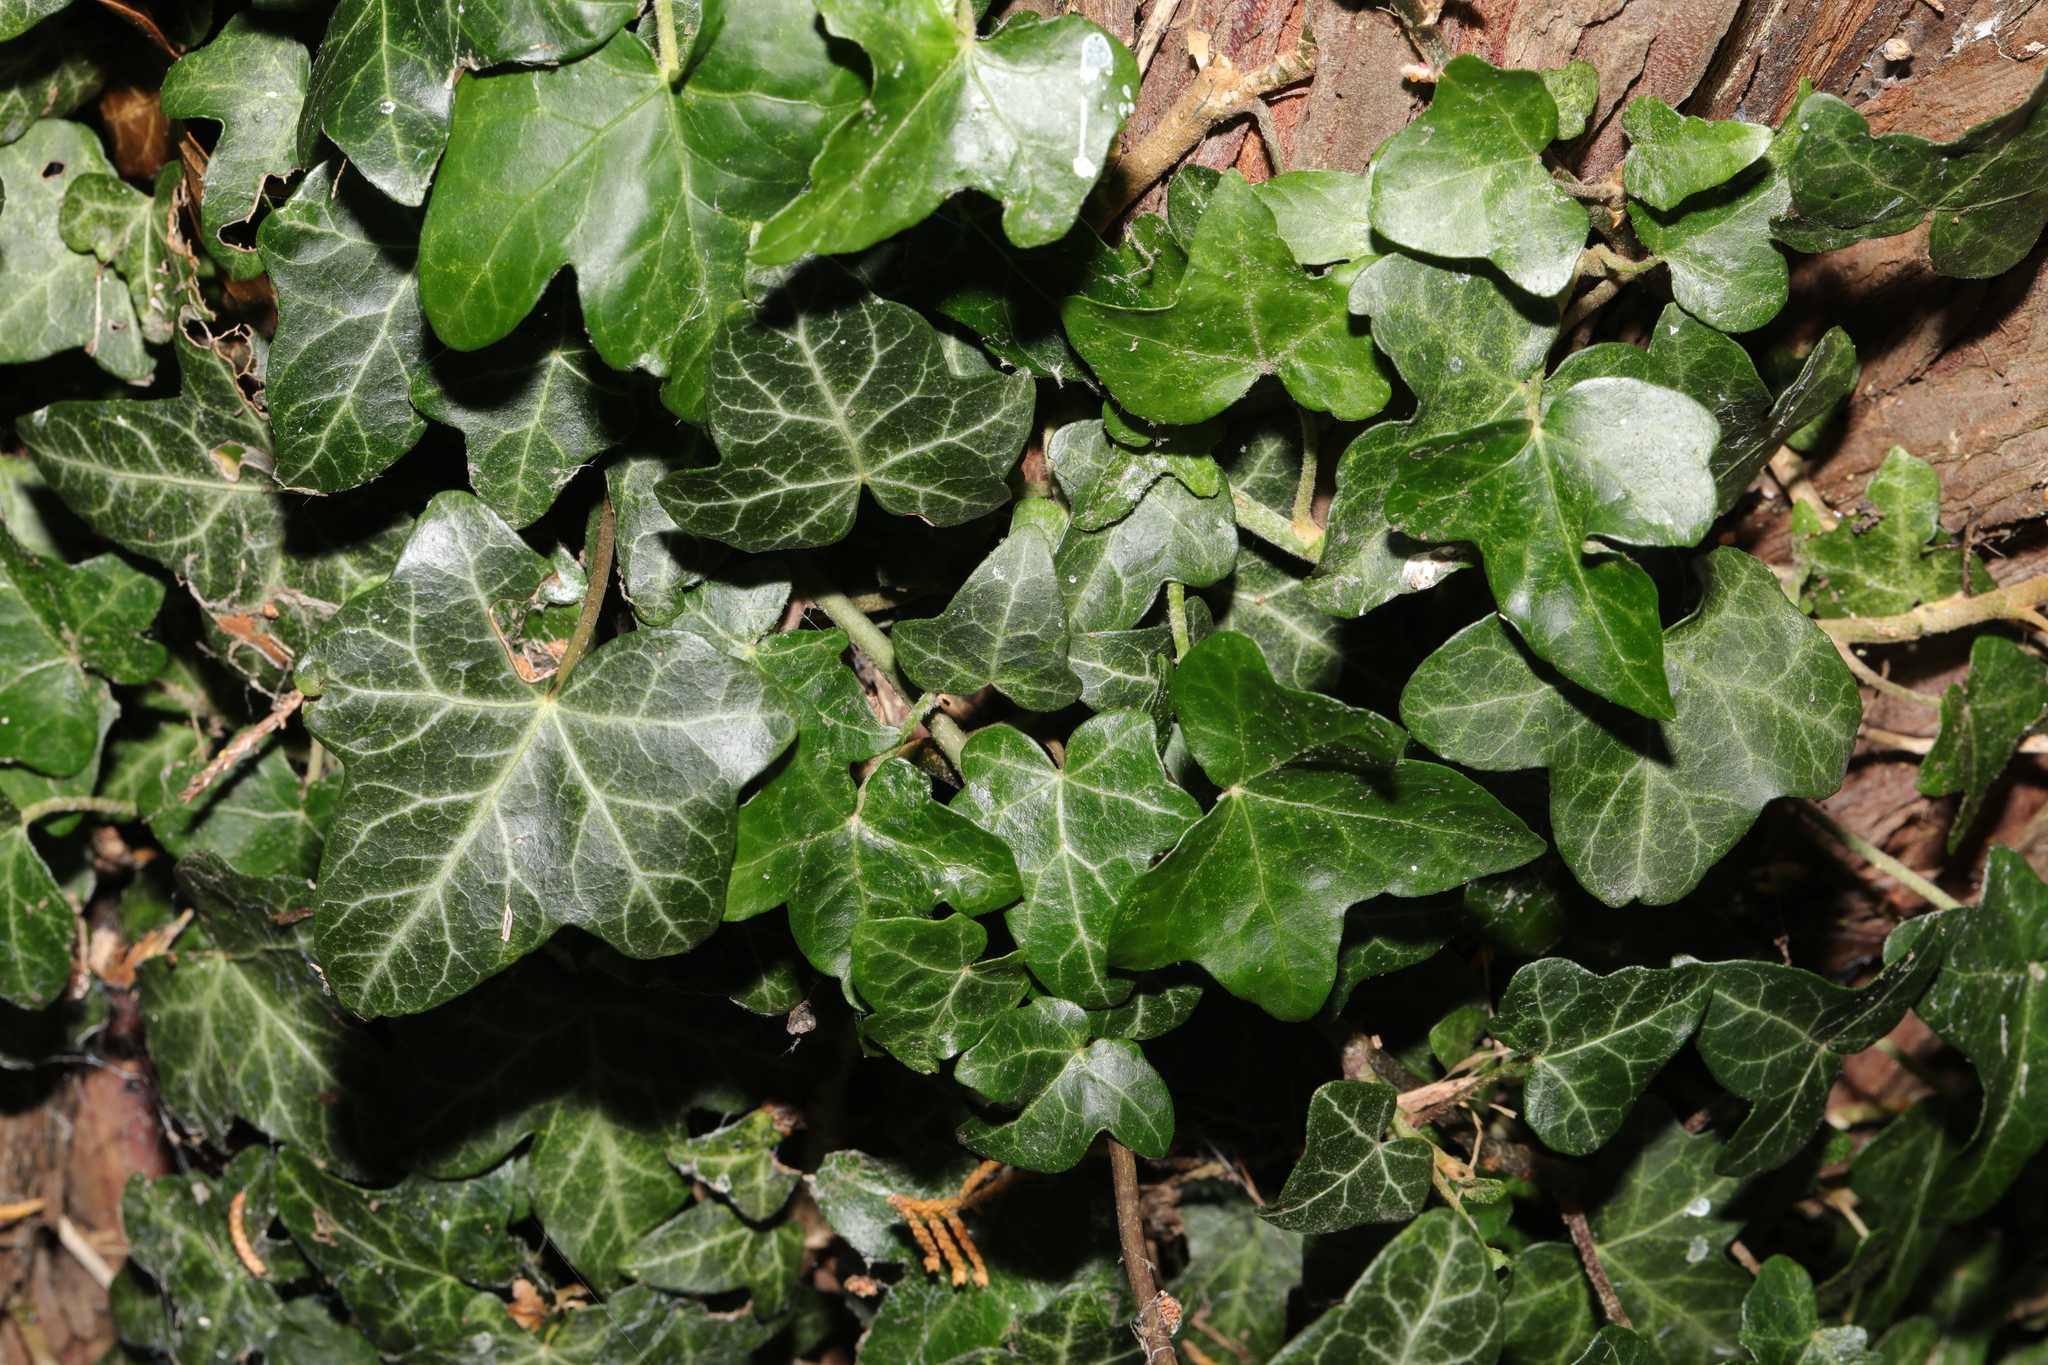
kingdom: Plantae
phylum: Tracheophyta
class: Magnoliopsida
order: Apiales
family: Araliaceae
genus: Hedera
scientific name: Hedera helix
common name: Ivy
